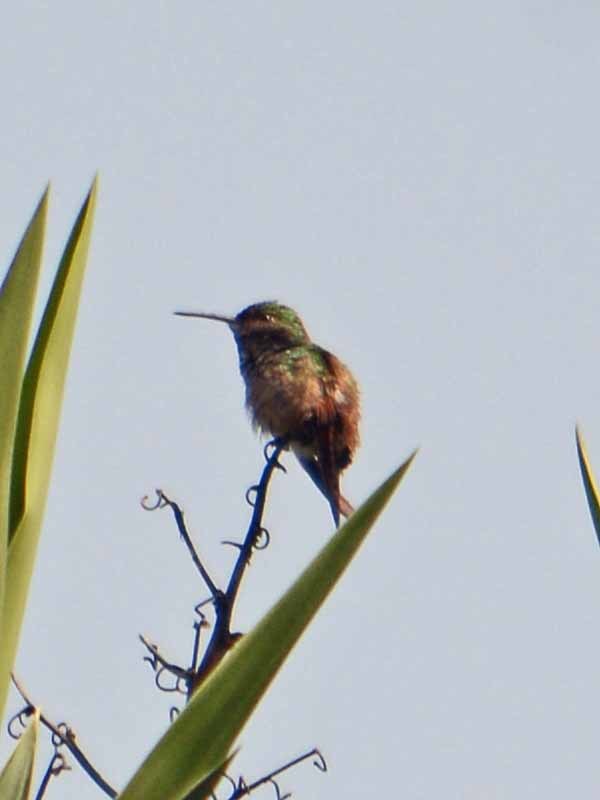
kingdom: Animalia
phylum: Chordata
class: Aves
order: Apodiformes
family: Trochilidae
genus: Saucerottia
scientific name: Saucerottia beryllina
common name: Berylline hummingbird
